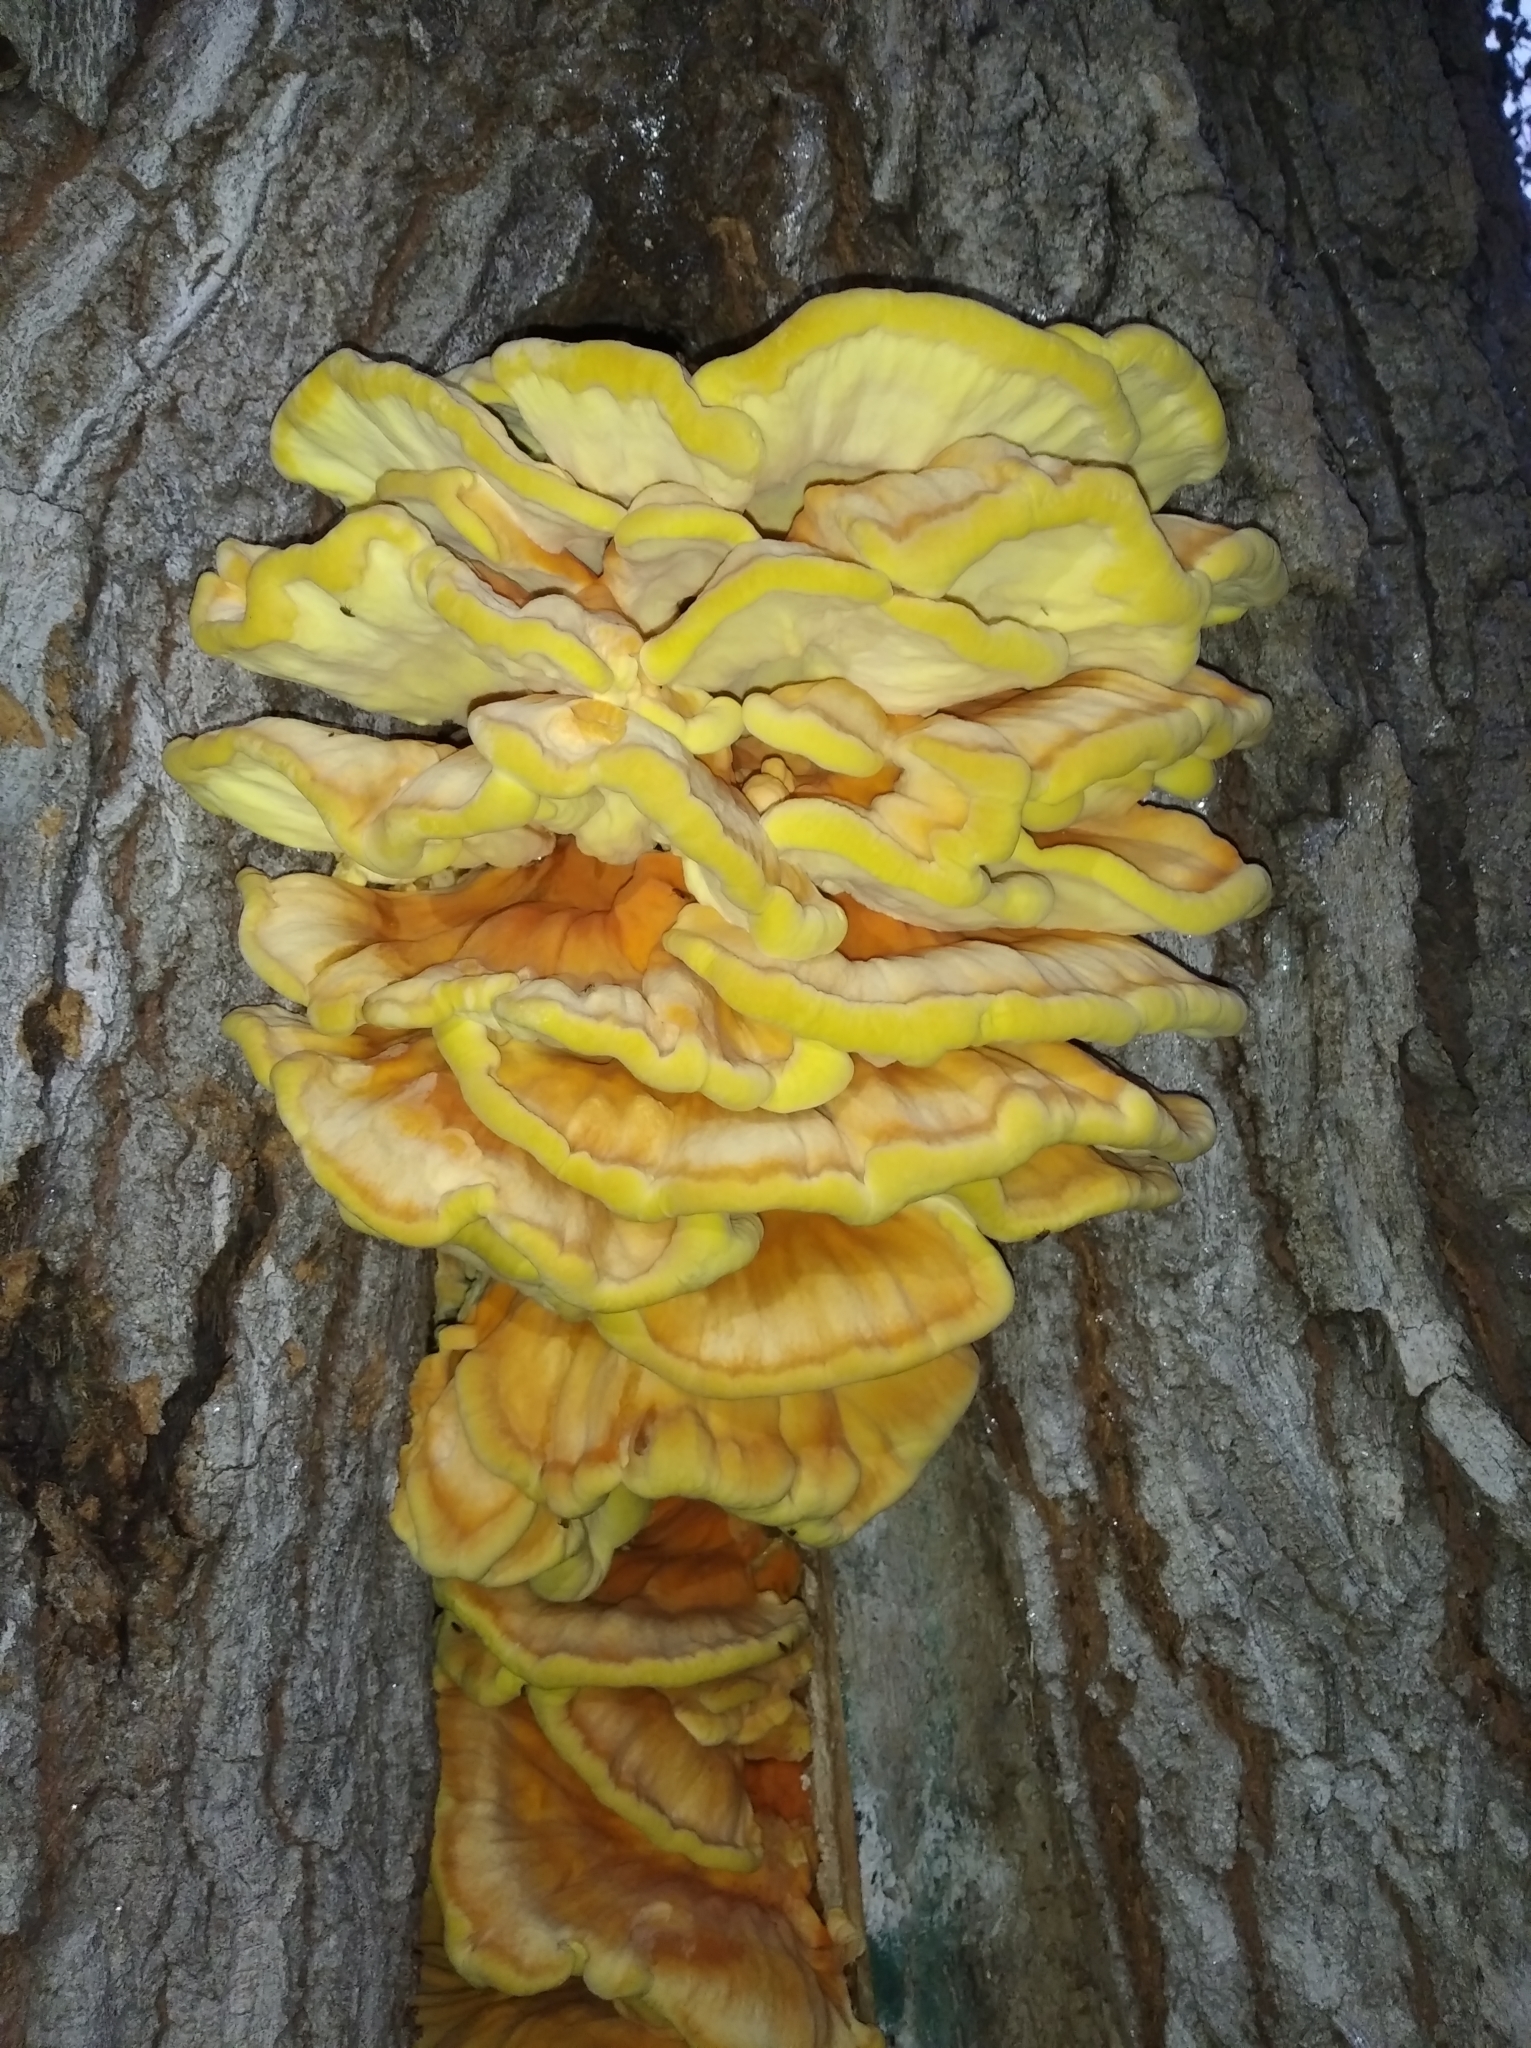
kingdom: Fungi
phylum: Basidiomycota
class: Agaricomycetes
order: Polyporales
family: Laetiporaceae
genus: Laetiporus
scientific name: Laetiporus sulphureus
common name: Chicken of the woods
